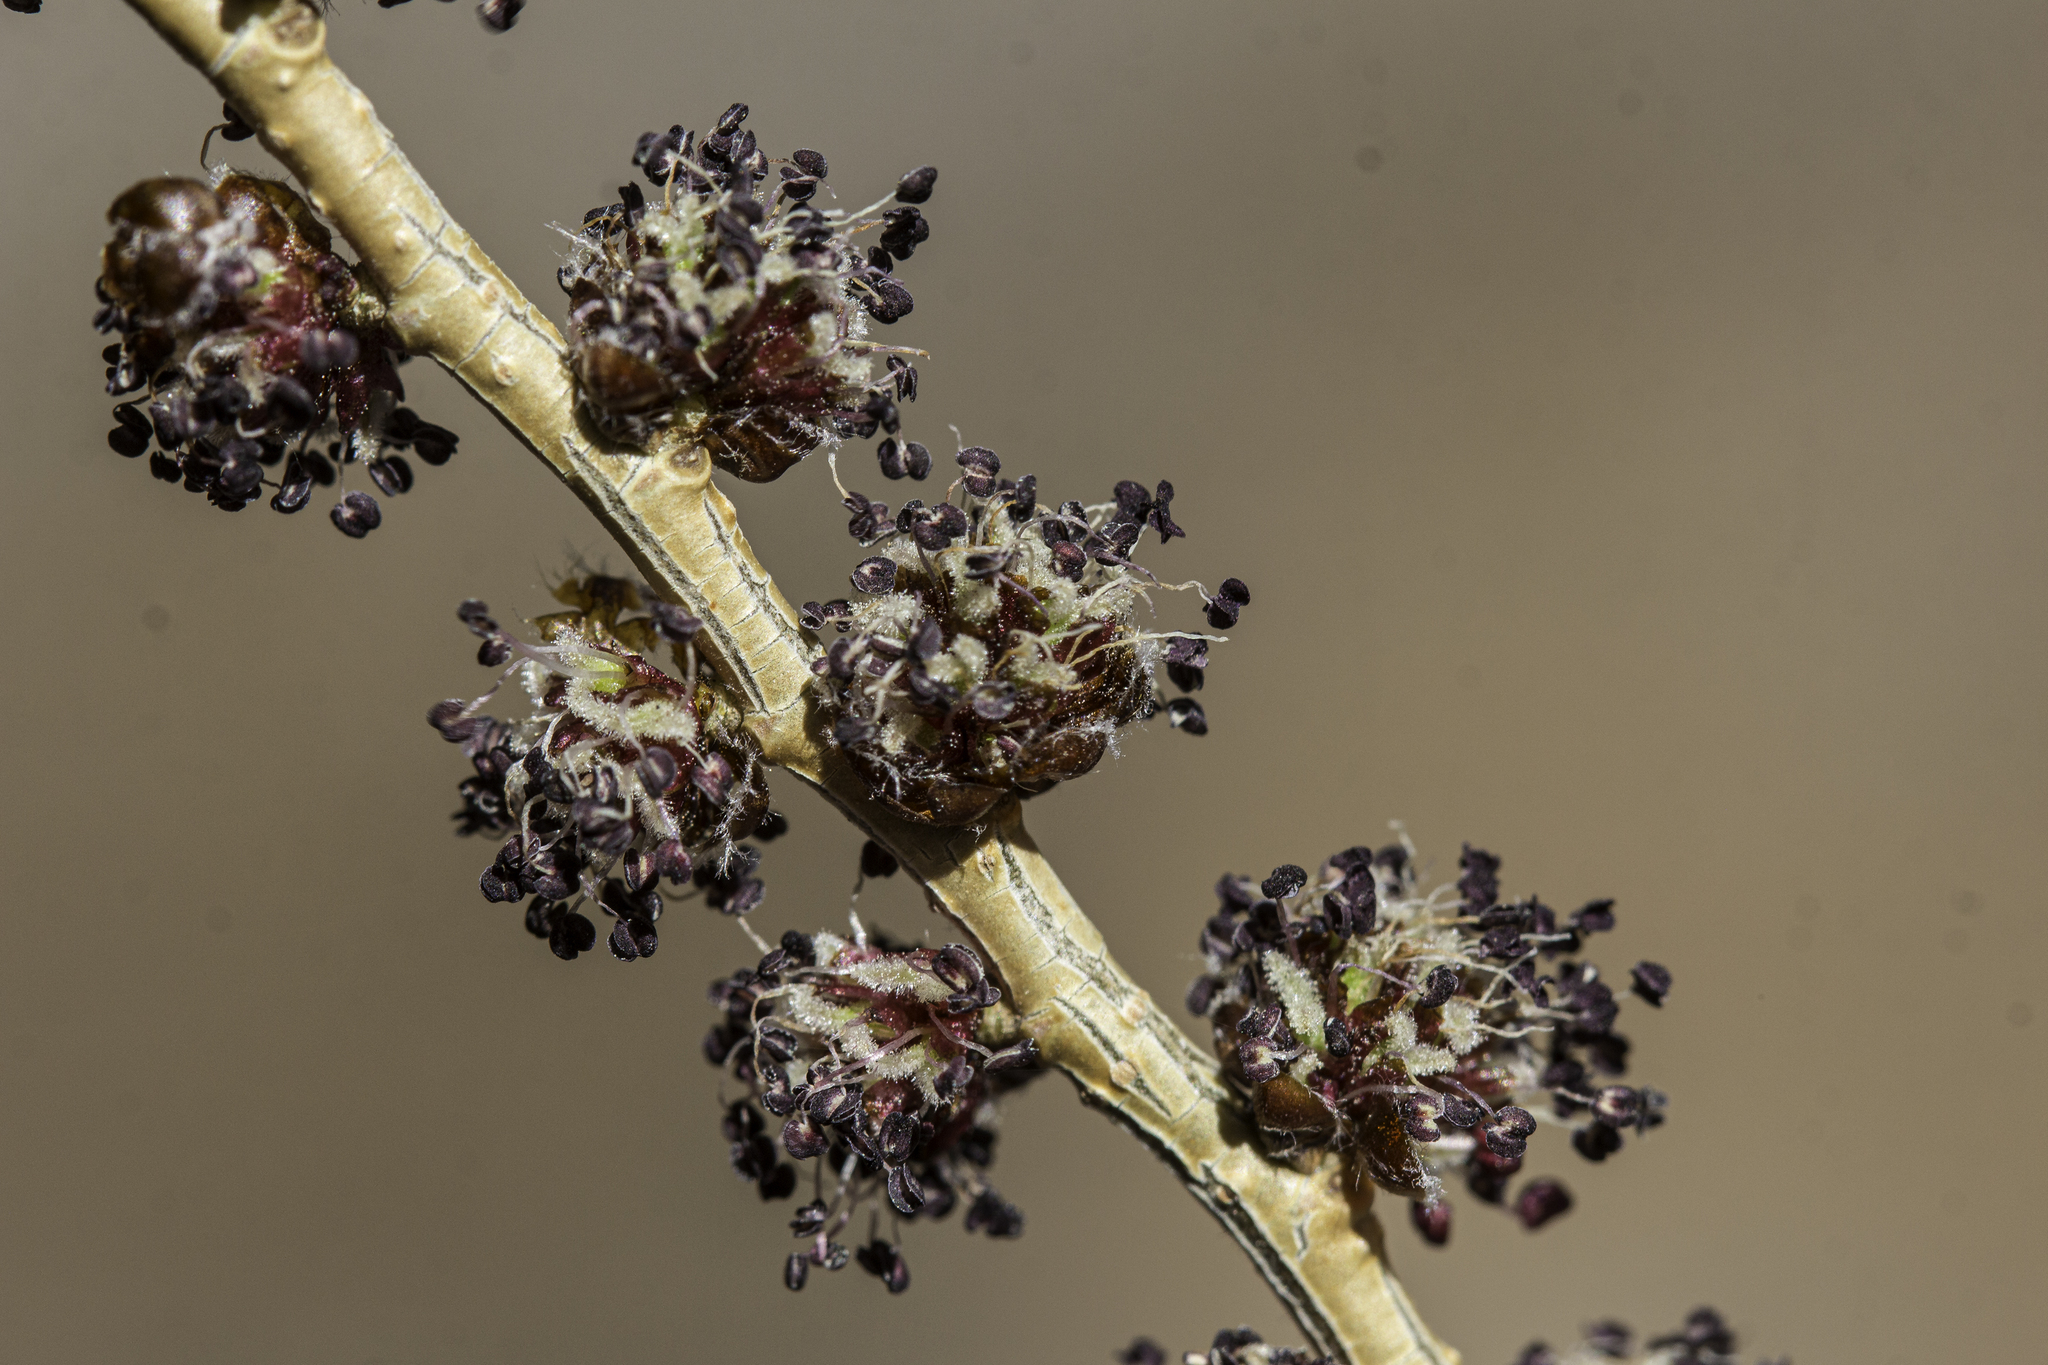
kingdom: Plantae
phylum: Tracheophyta
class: Magnoliopsida
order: Rosales
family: Ulmaceae
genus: Ulmus
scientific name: Ulmus pumila
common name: Siberian elm
